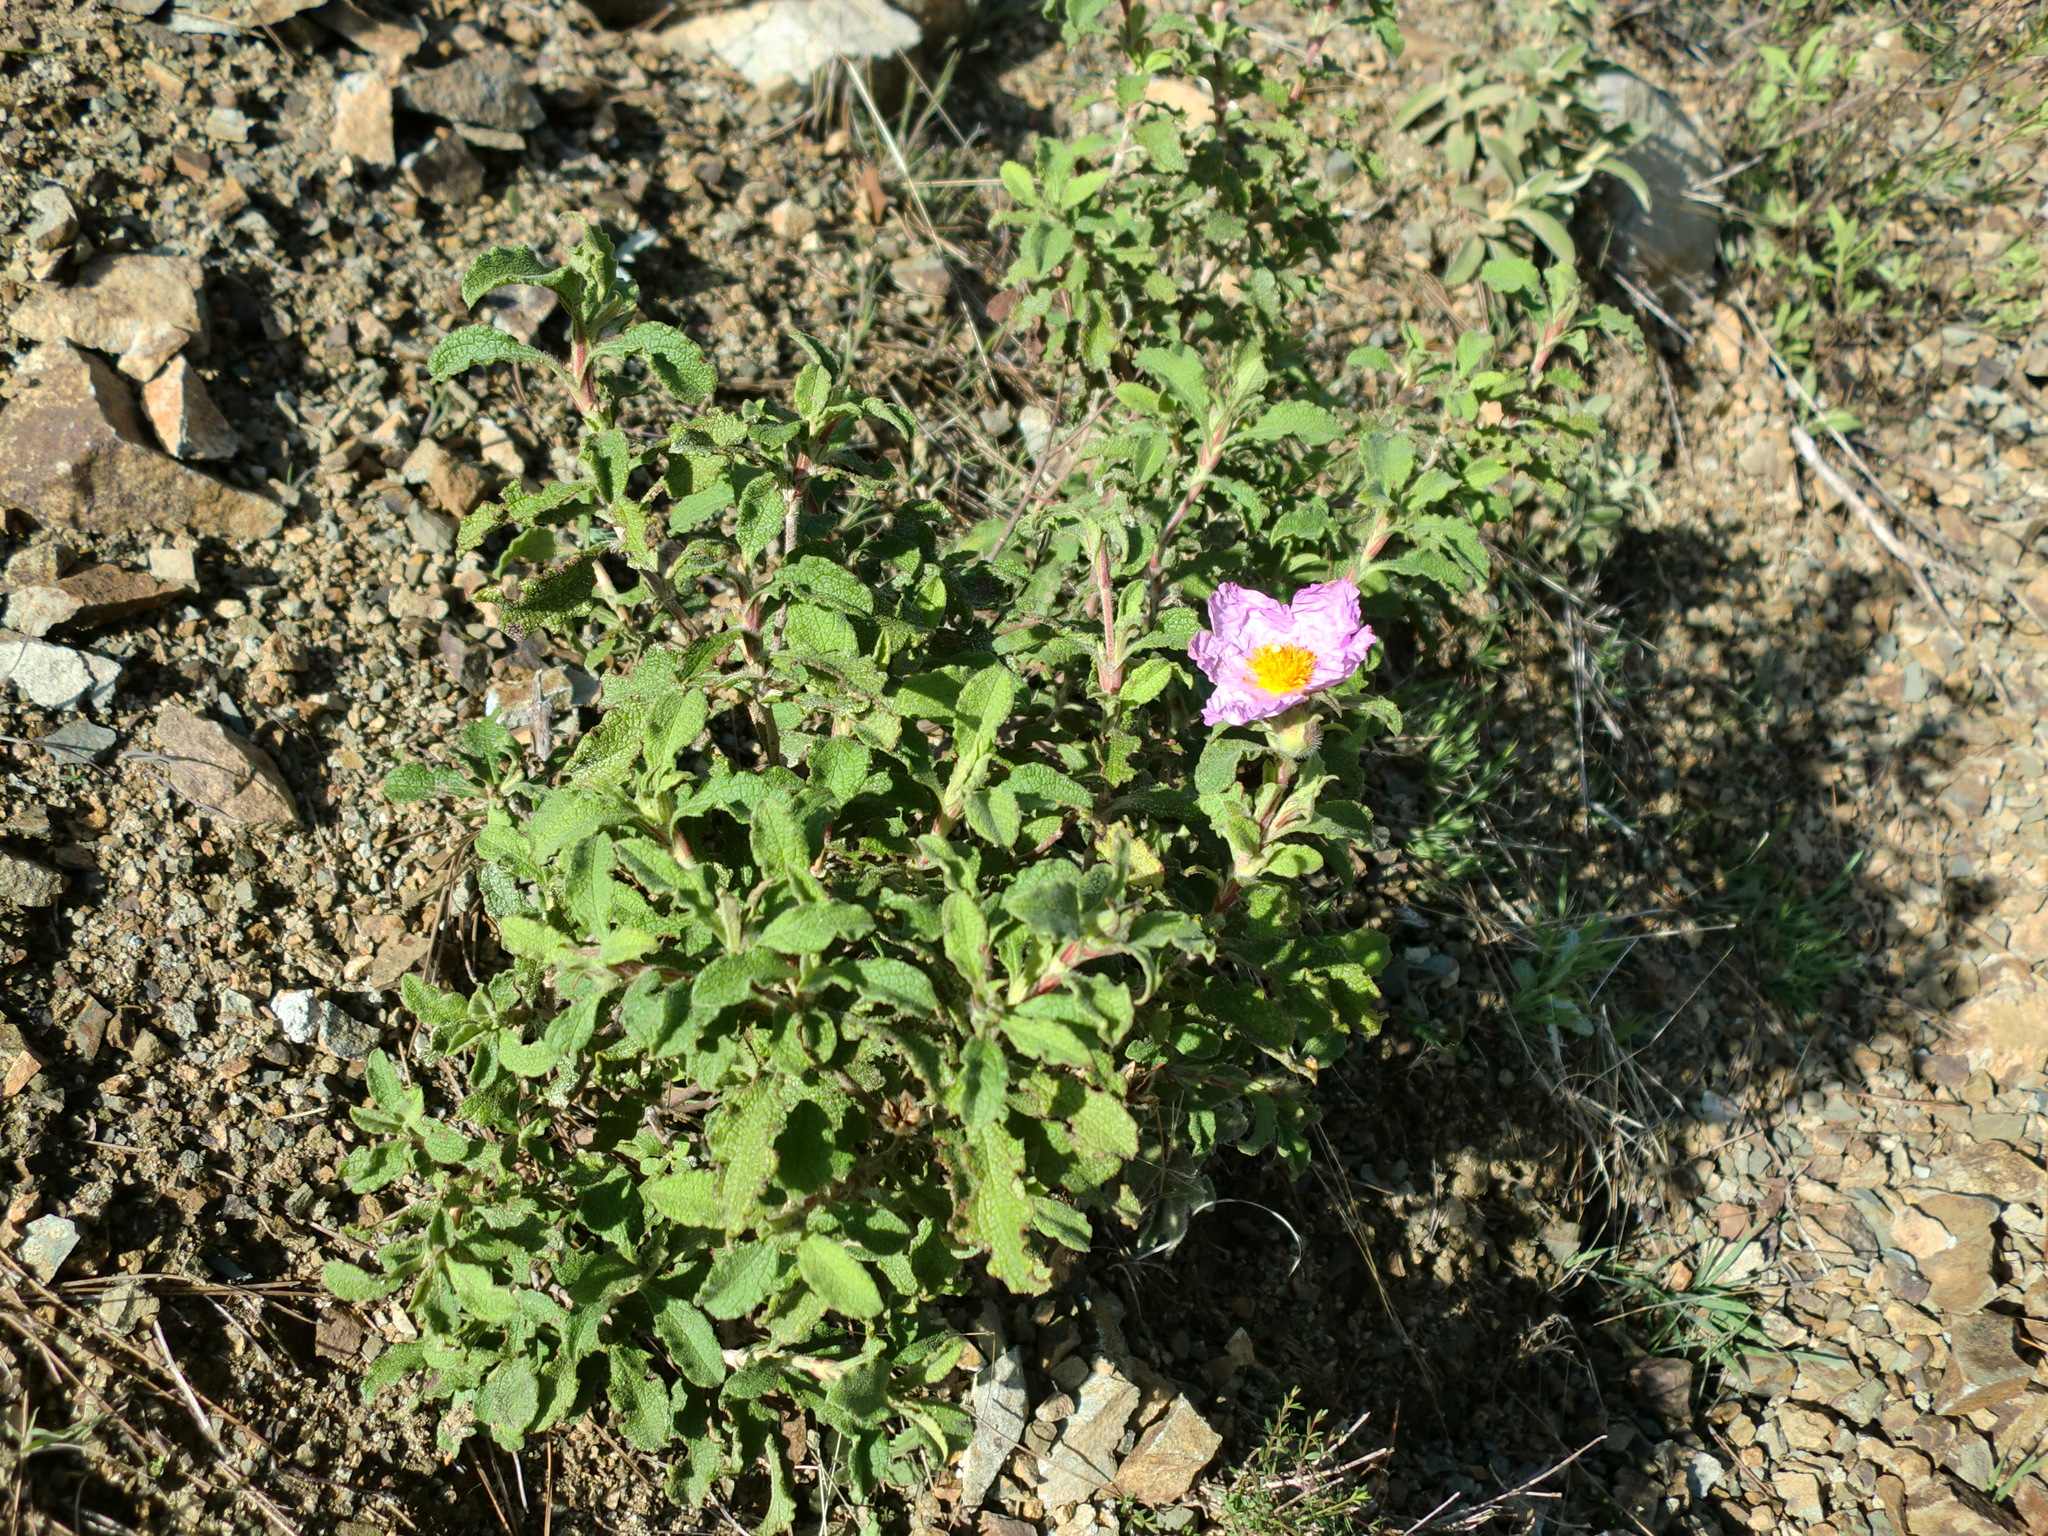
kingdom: Plantae
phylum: Tracheophyta
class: Magnoliopsida
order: Malvales
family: Cistaceae
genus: Cistus
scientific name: Cistus creticus
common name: Cretan rockrose
